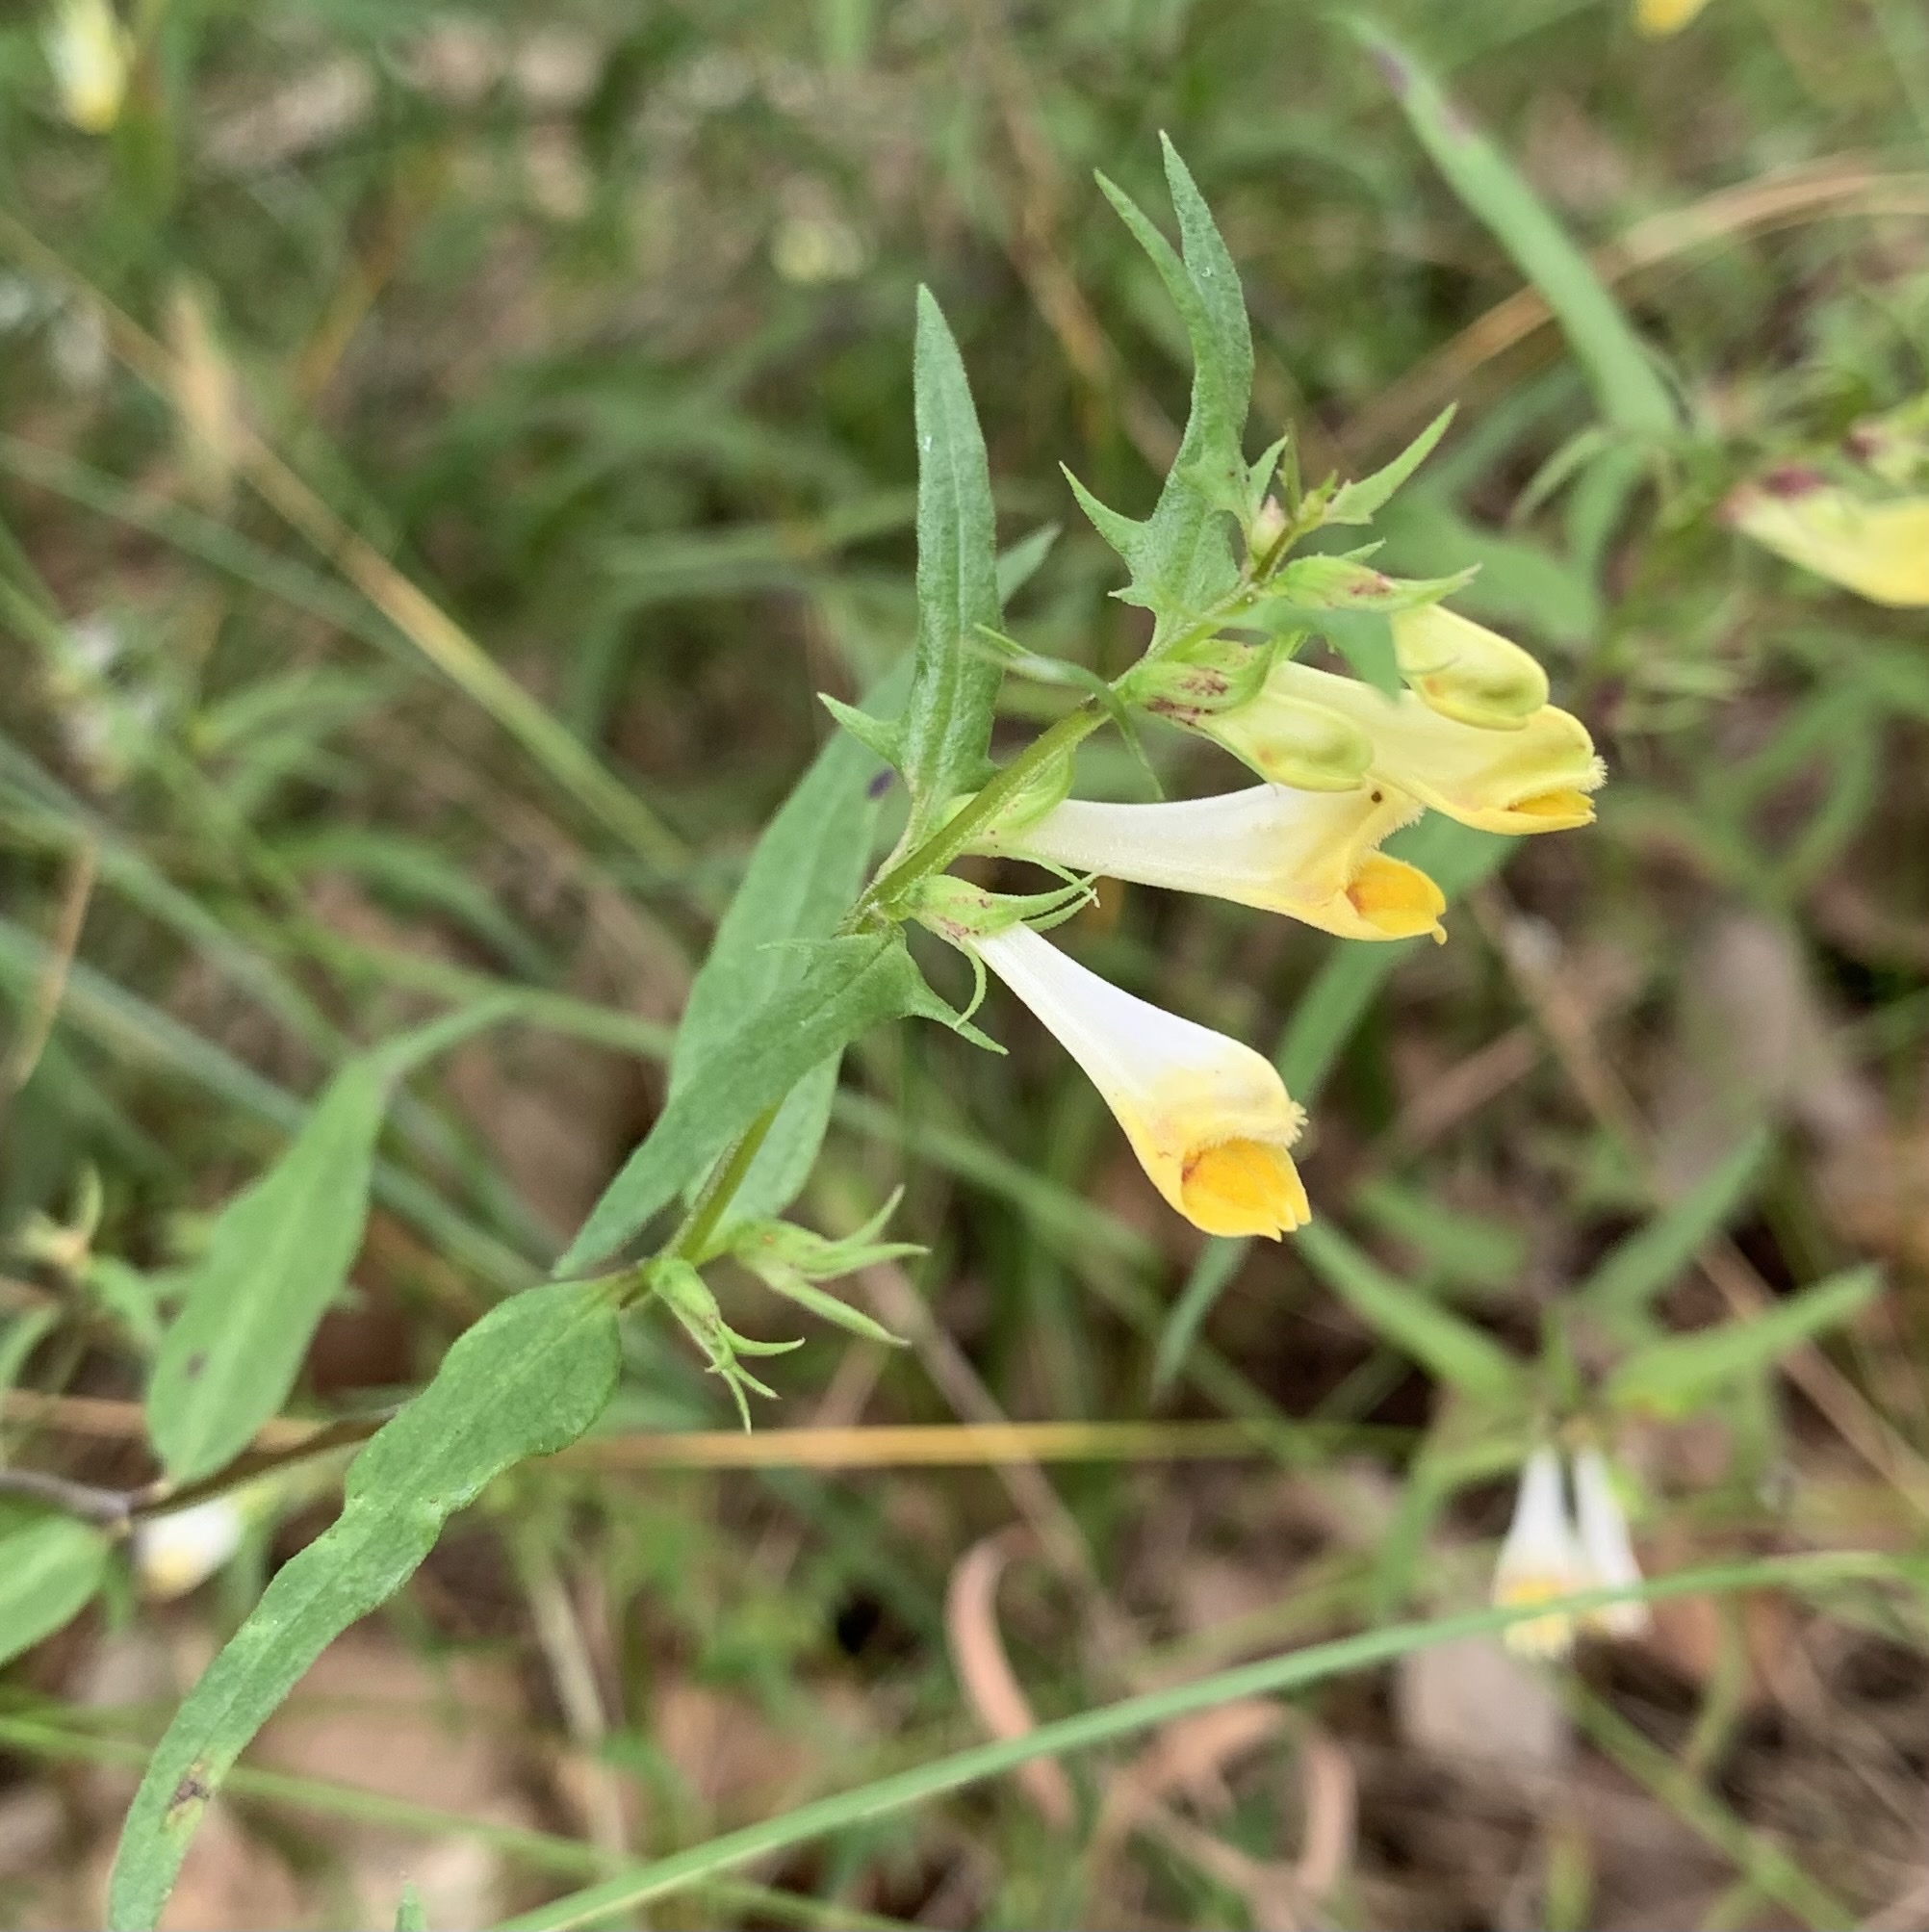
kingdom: Plantae
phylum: Tracheophyta
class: Magnoliopsida
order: Lamiales
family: Orobanchaceae
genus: Melampyrum
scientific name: Melampyrum pratense
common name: Common cow-wheat
